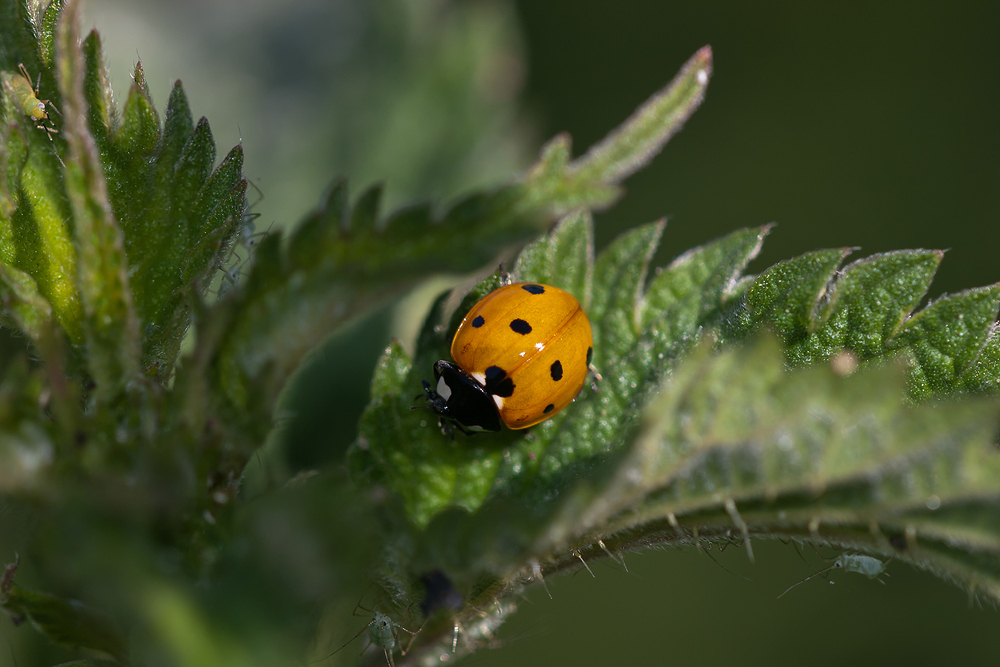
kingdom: Animalia
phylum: Arthropoda
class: Insecta
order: Coleoptera
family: Coccinellidae
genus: Coccinella
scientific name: Coccinella septempunctata
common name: Sevenspotted lady beetle
